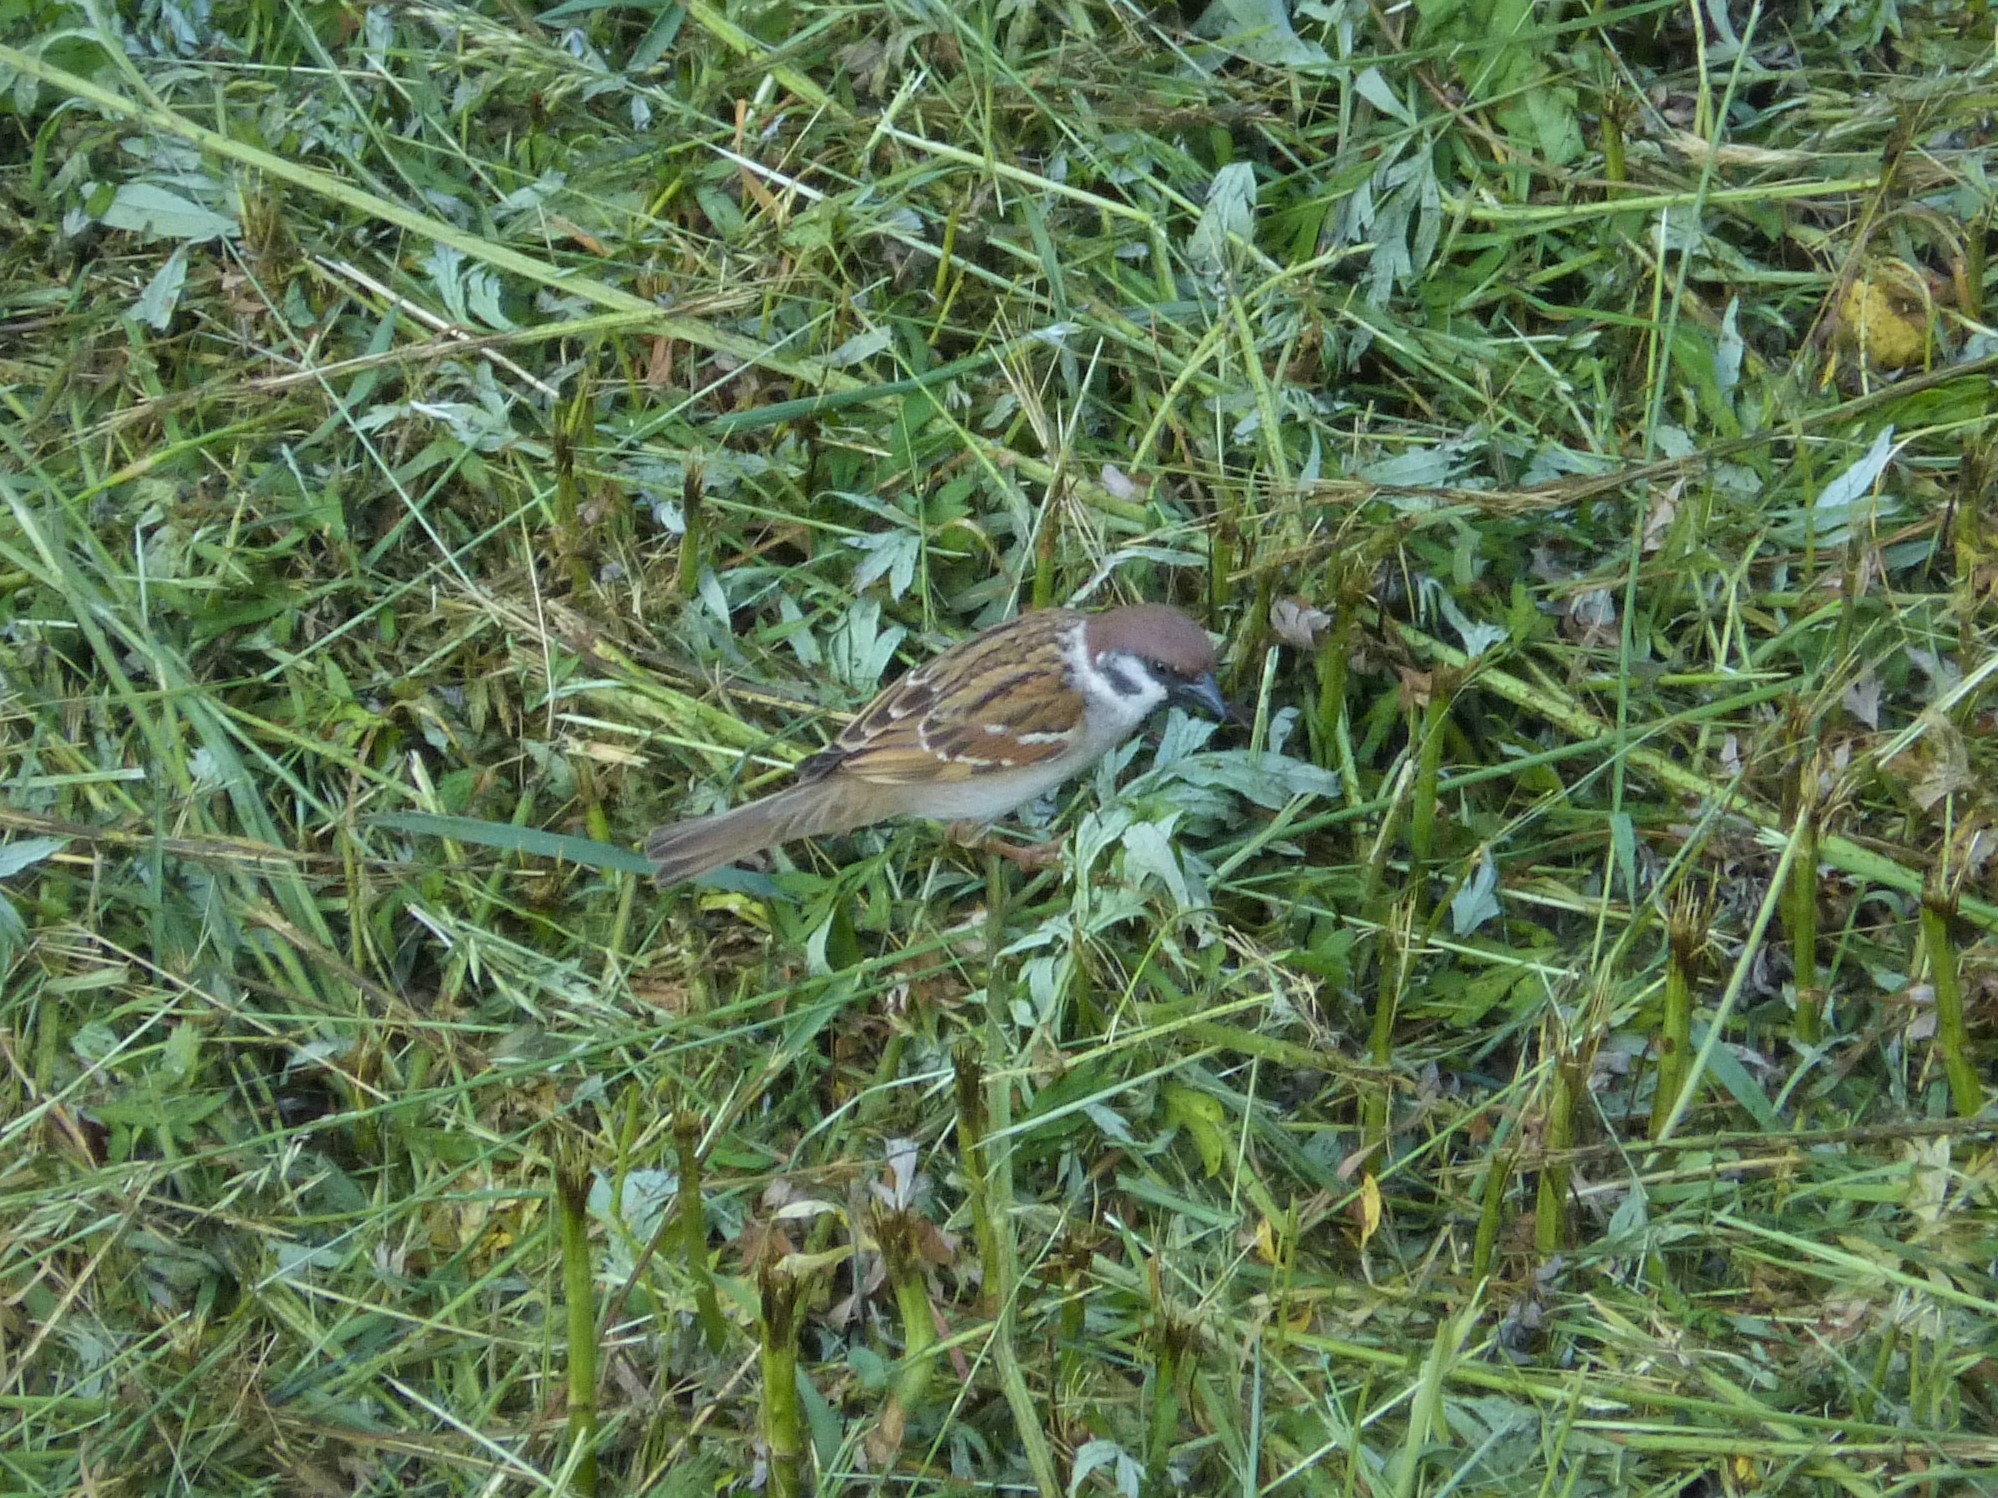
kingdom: Animalia
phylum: Chordata
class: Aves
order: Passeriformes
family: Passeridae
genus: Passer
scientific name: Passer montanus
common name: Eurasian tree sparrow
